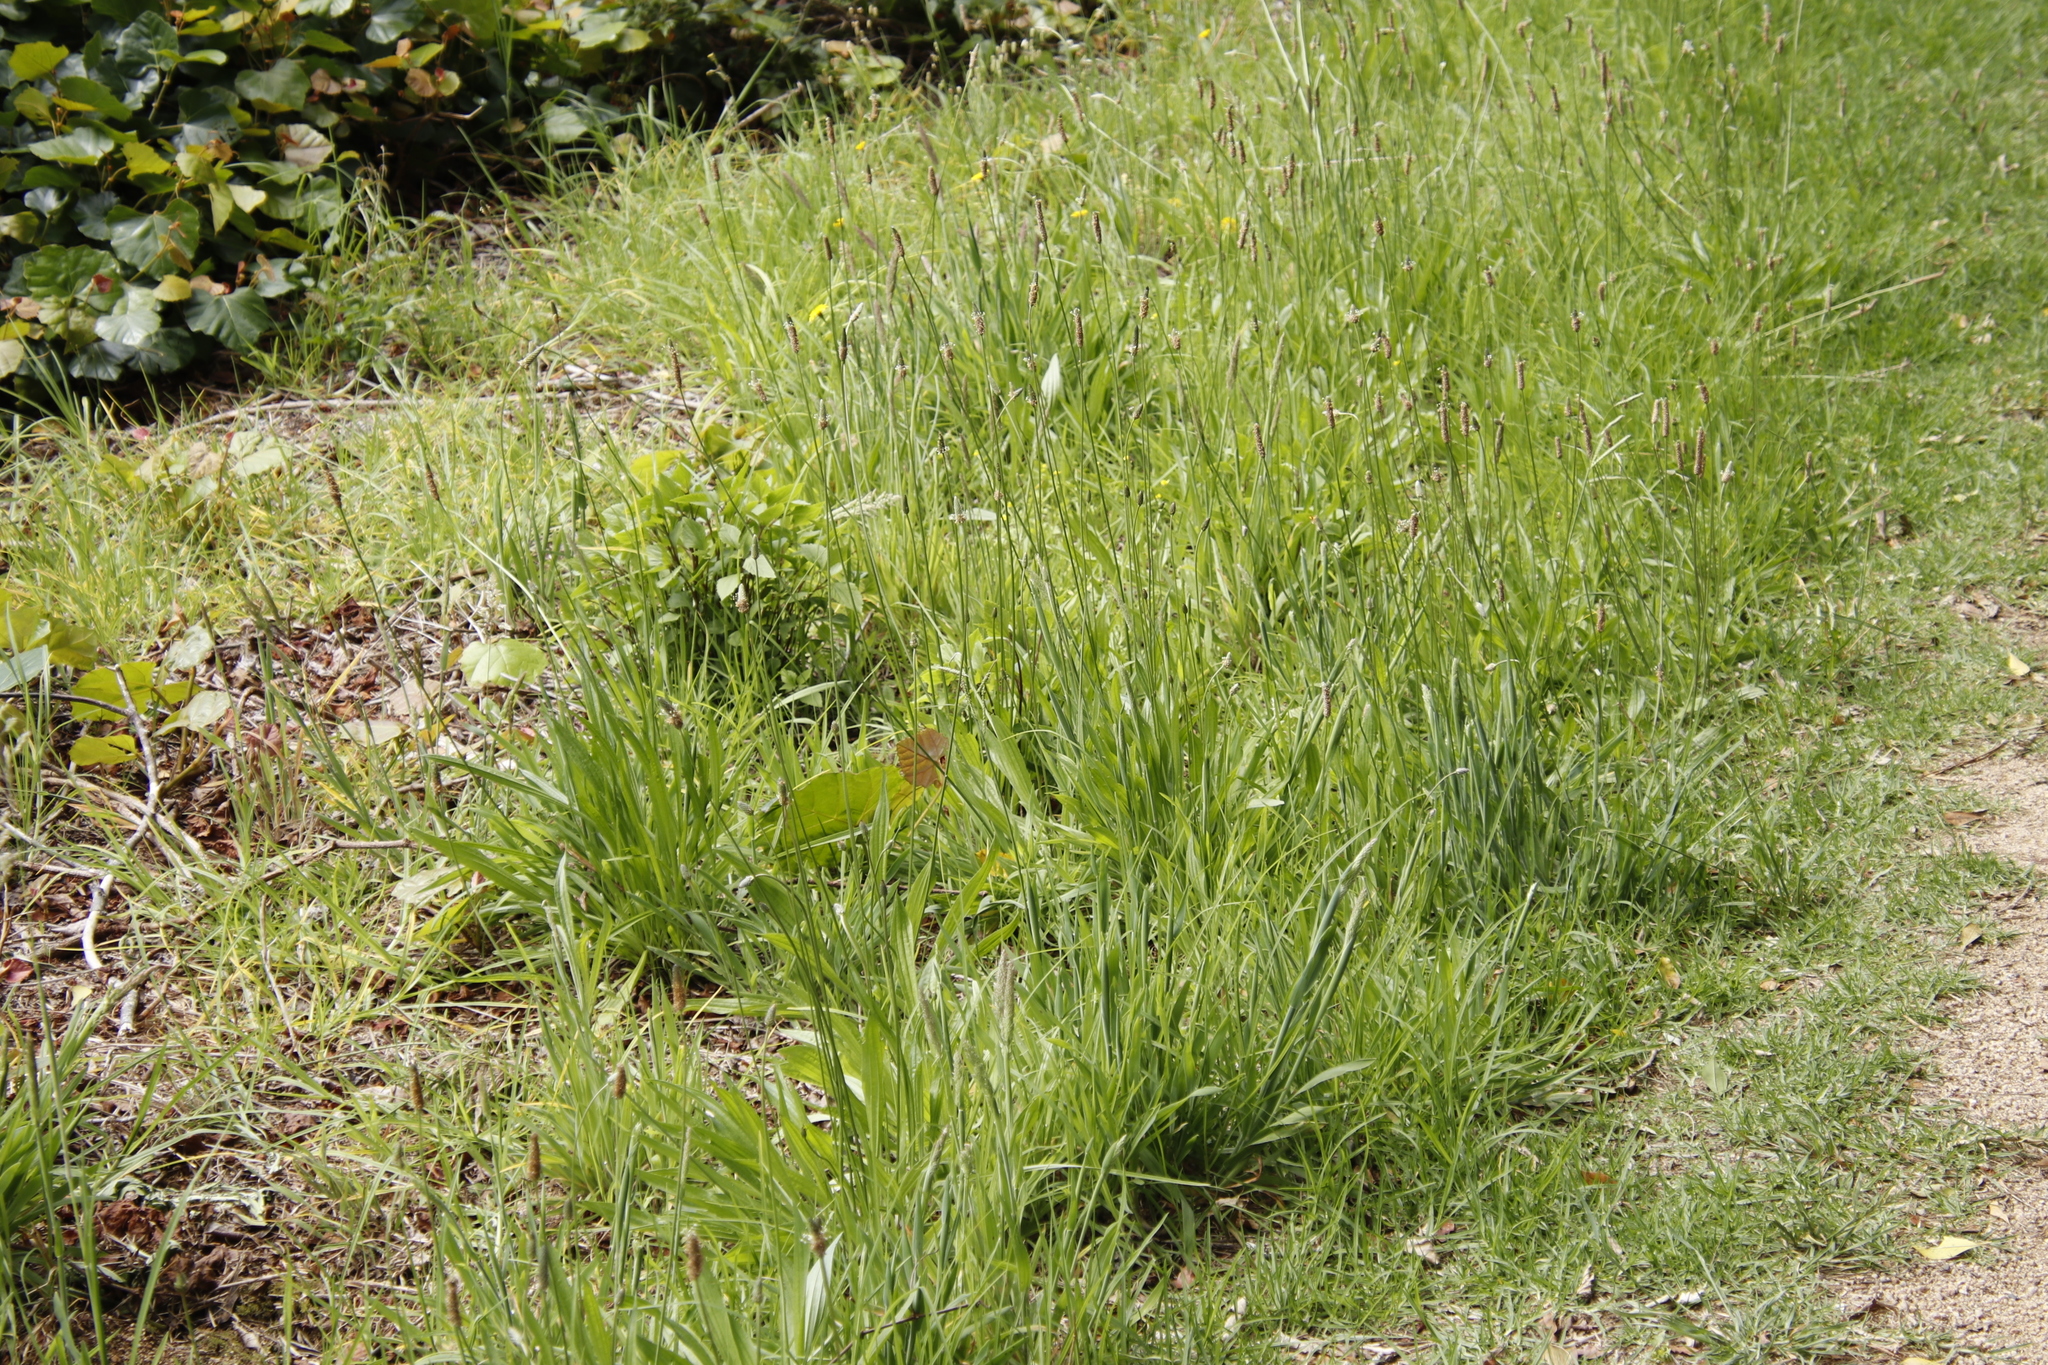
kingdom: Plantae
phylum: Tracheophyta
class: Magnoliopsida
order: Lamiales
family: Plantaginaceae
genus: Plantago
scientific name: Plantago lanceolata
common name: Ribwort plantain
